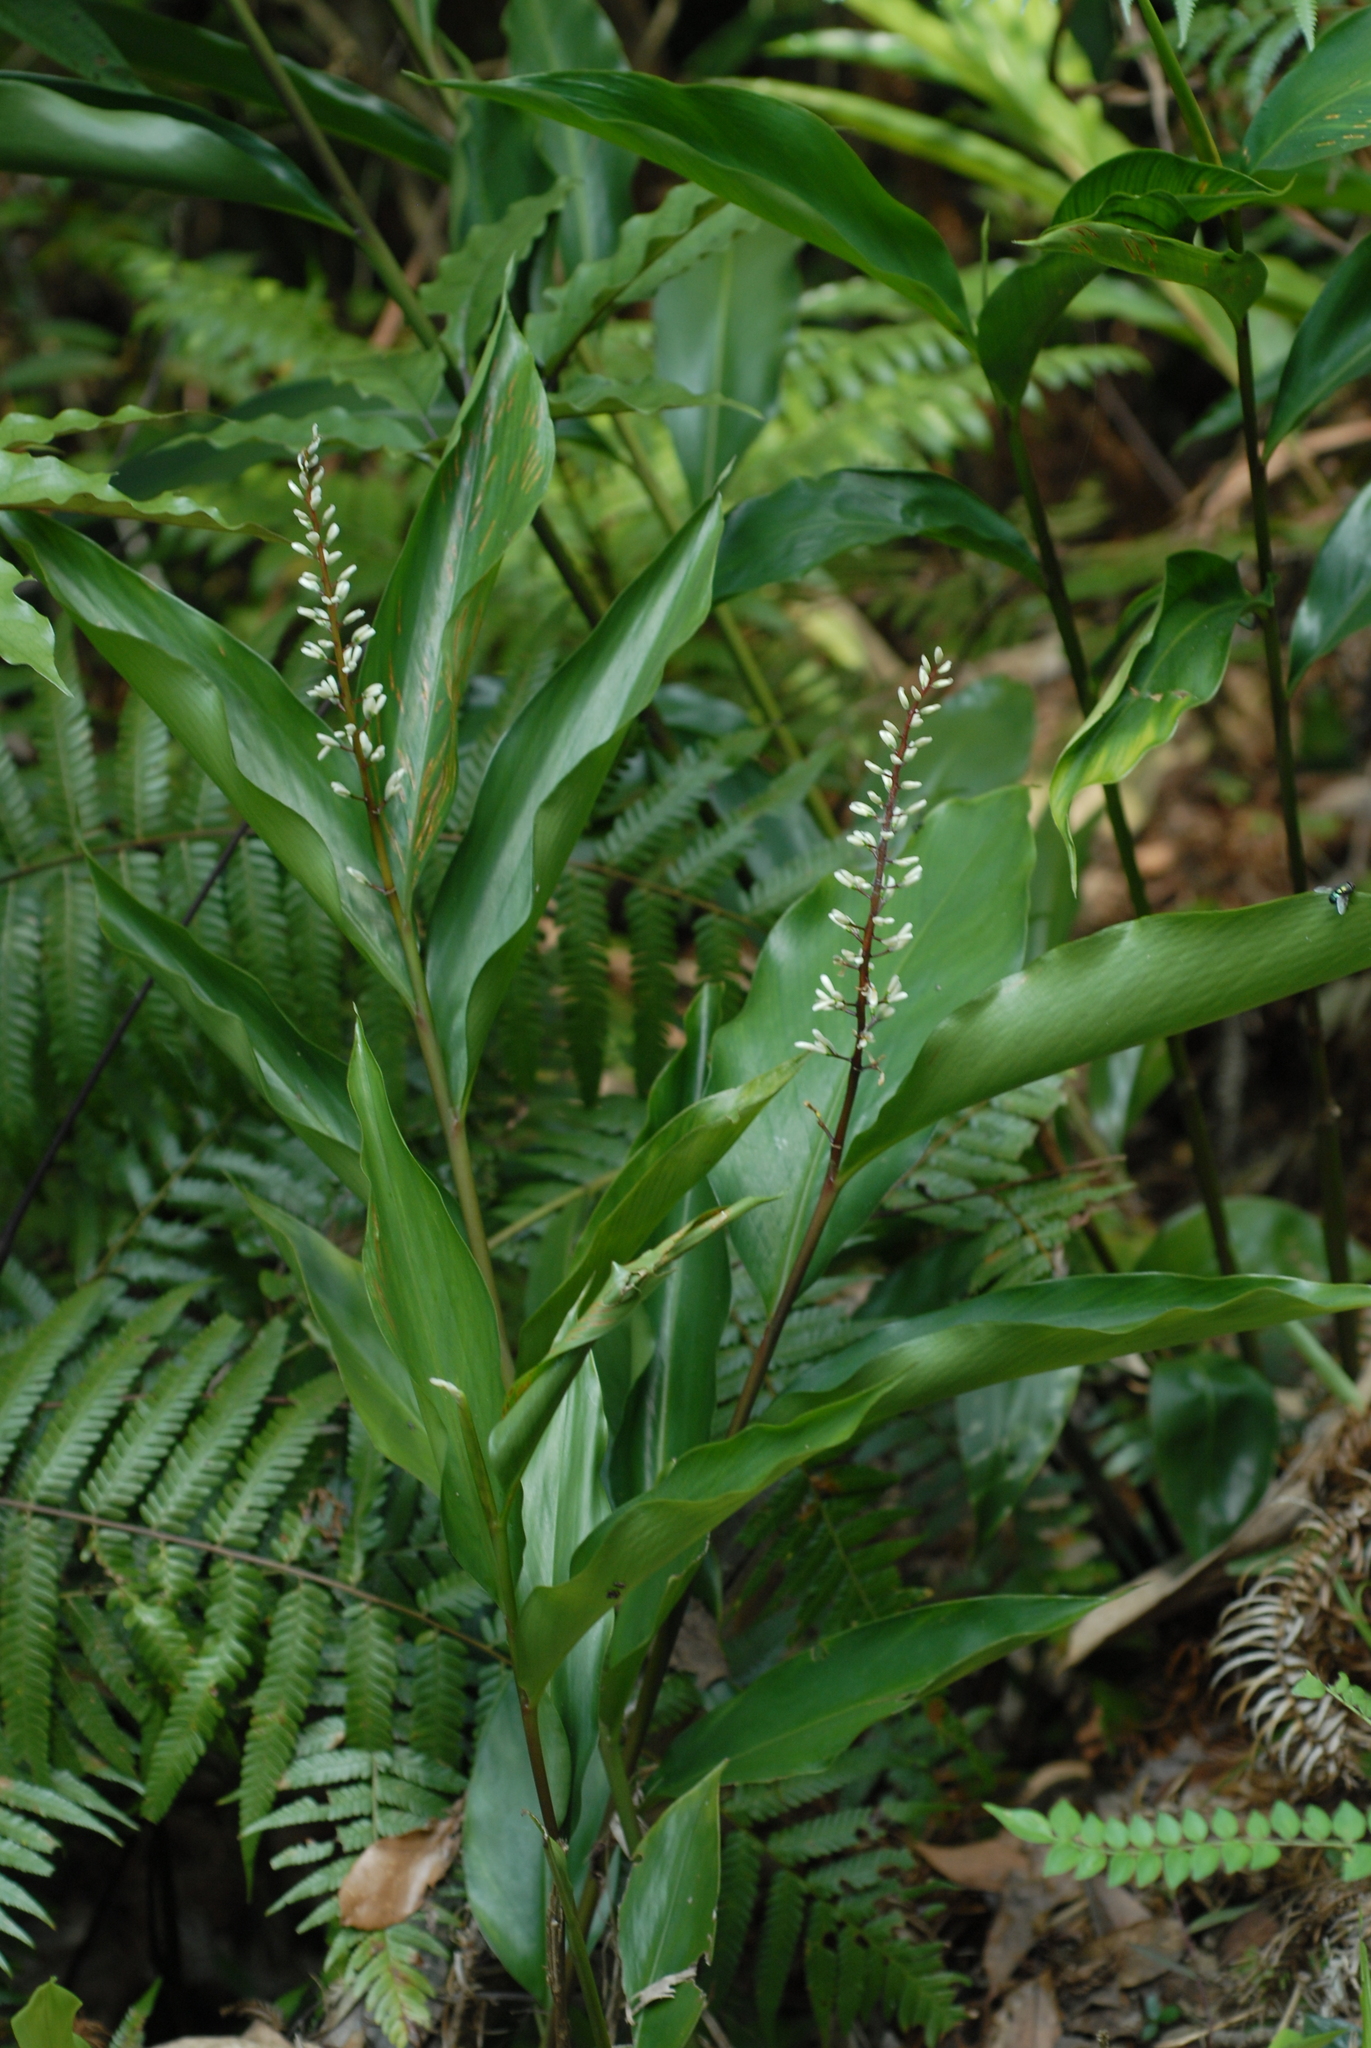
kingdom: Plantae
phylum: Tracheophyta
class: Liliopsida
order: Zingiberales
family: Zingiberaceae
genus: Alpinia
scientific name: Alpinia intermedia
